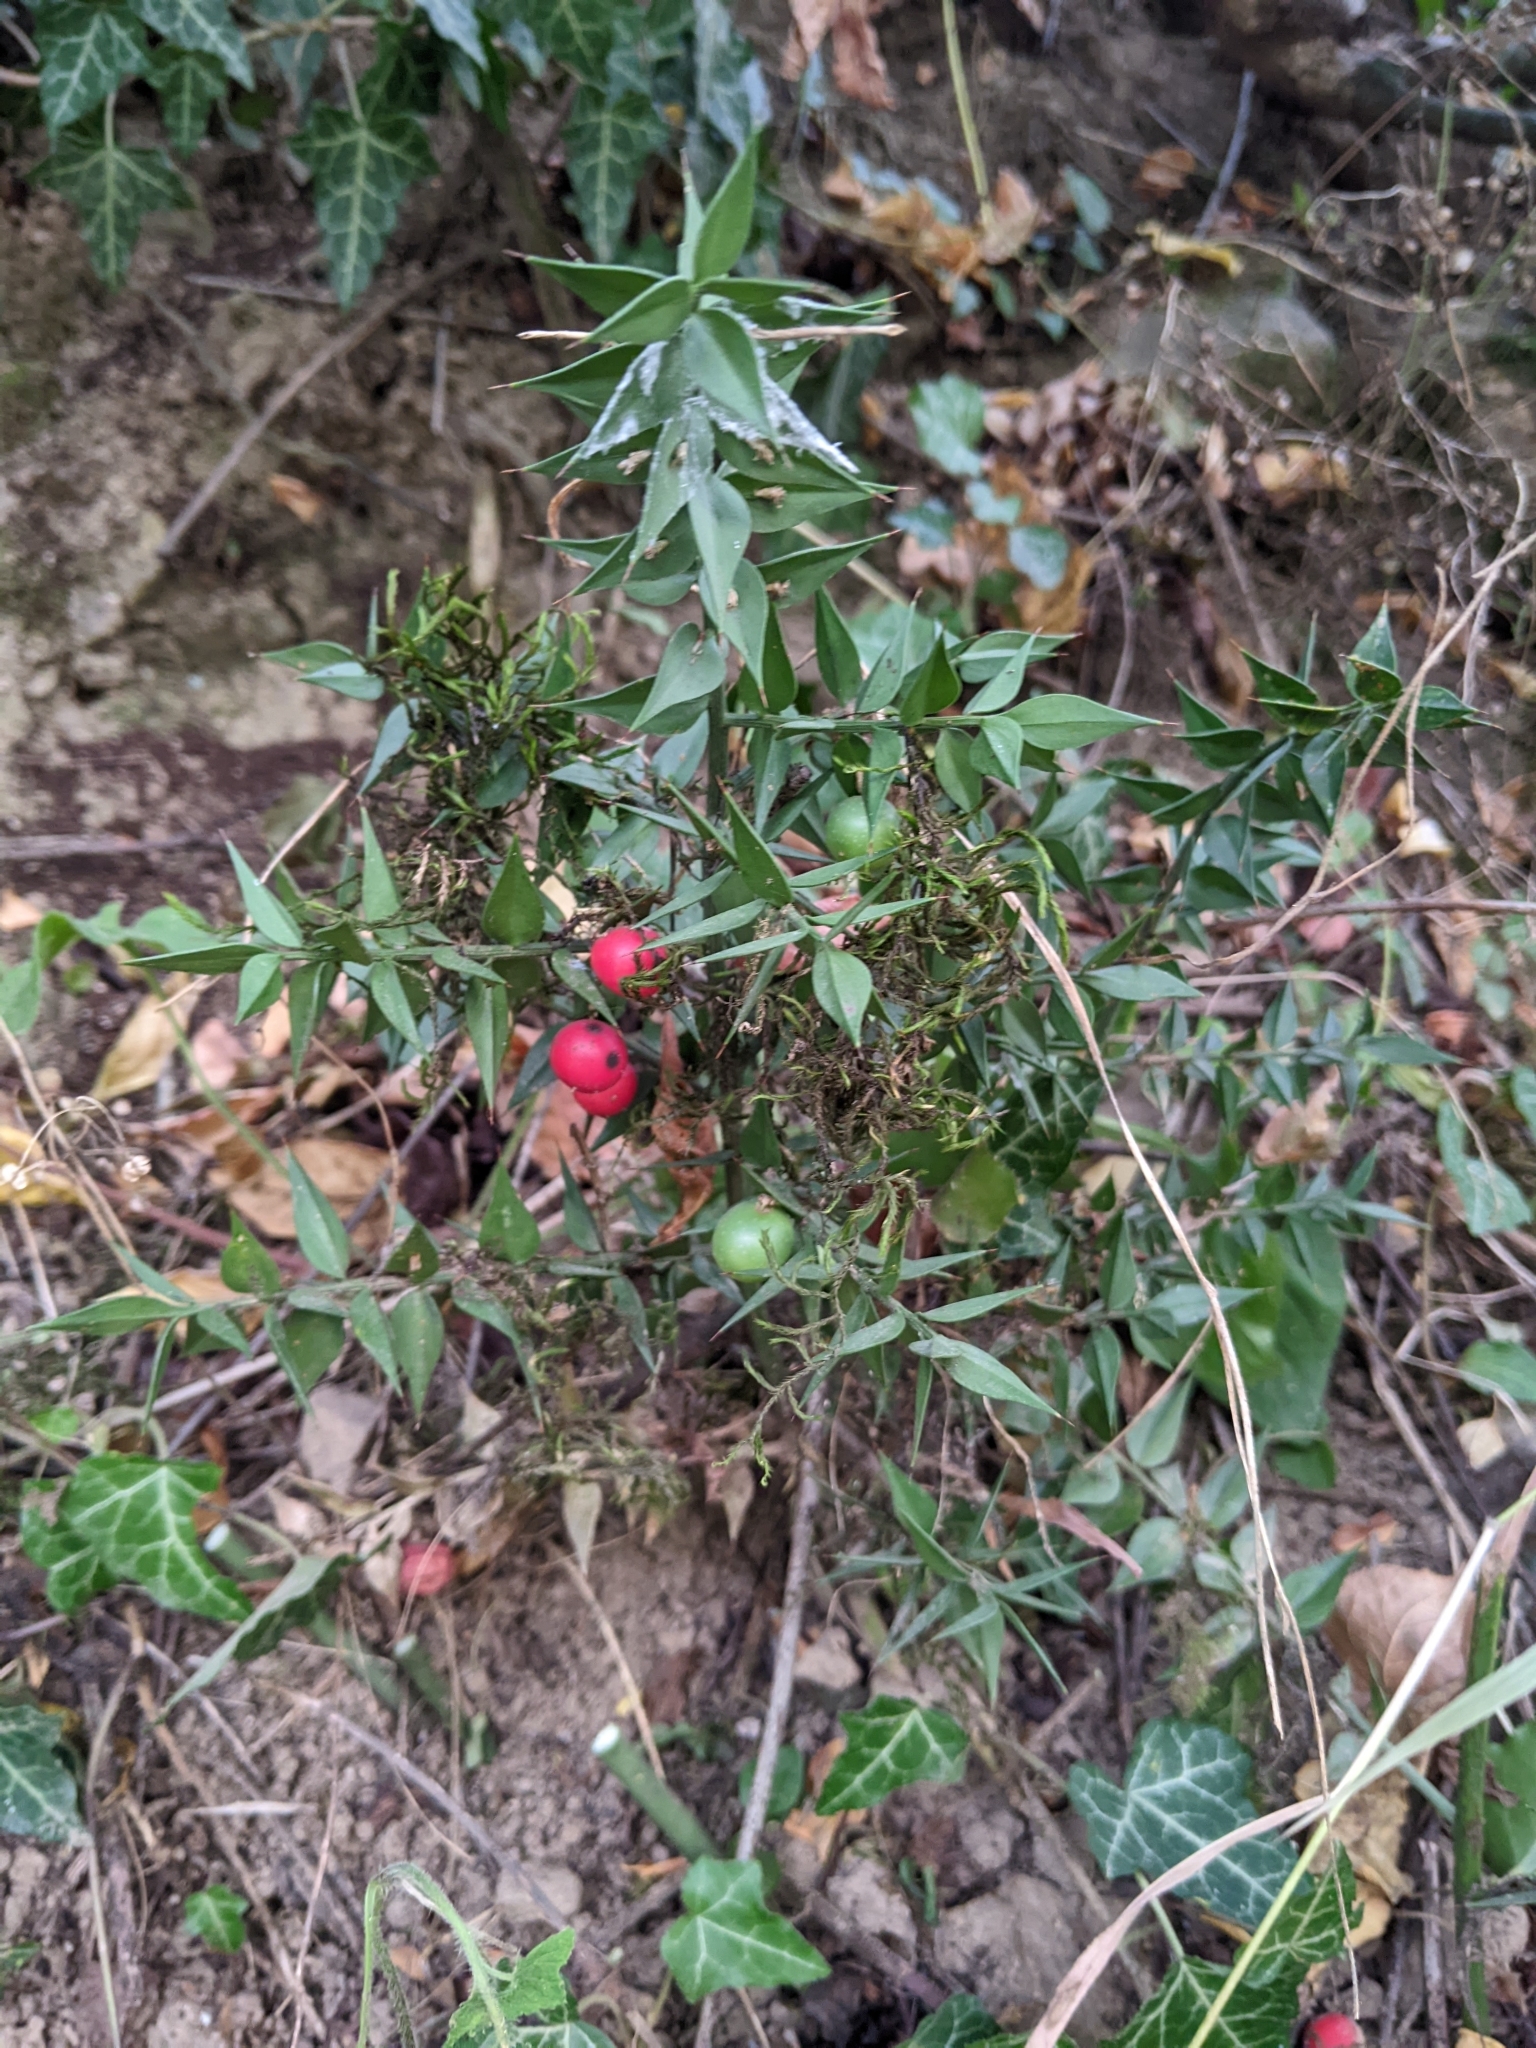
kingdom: Plantae
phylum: Tracheophyta
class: Liliopsida
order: Asparagales
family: Asparagaceae
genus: Ruscus
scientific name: Ruscus aculeatus
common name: Butcher's-broom
